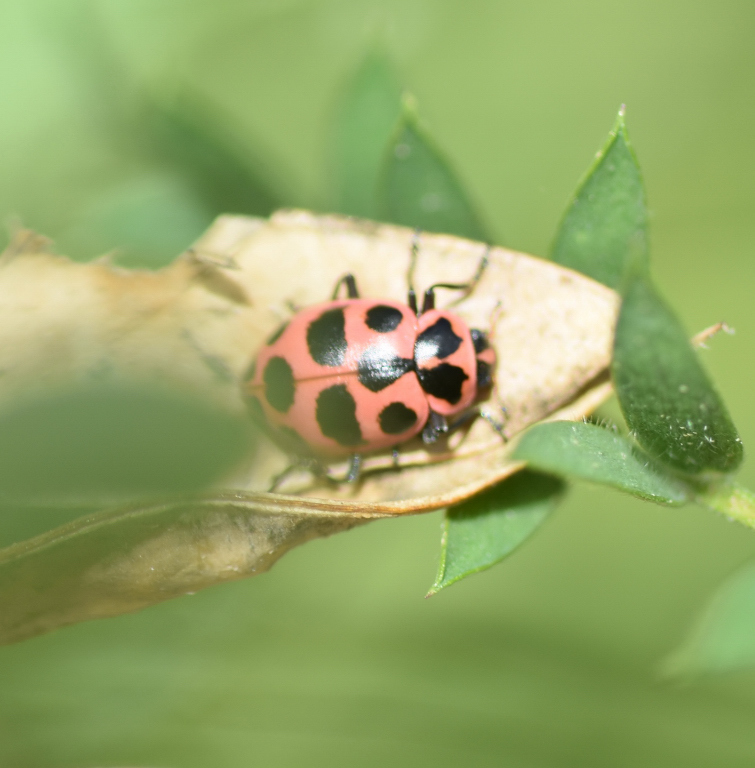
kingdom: Animalia
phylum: Arthropoda
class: Insecta
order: Coleoptera
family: Coccinellidae
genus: Coleomegilla
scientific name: Coleomegilla maculata
